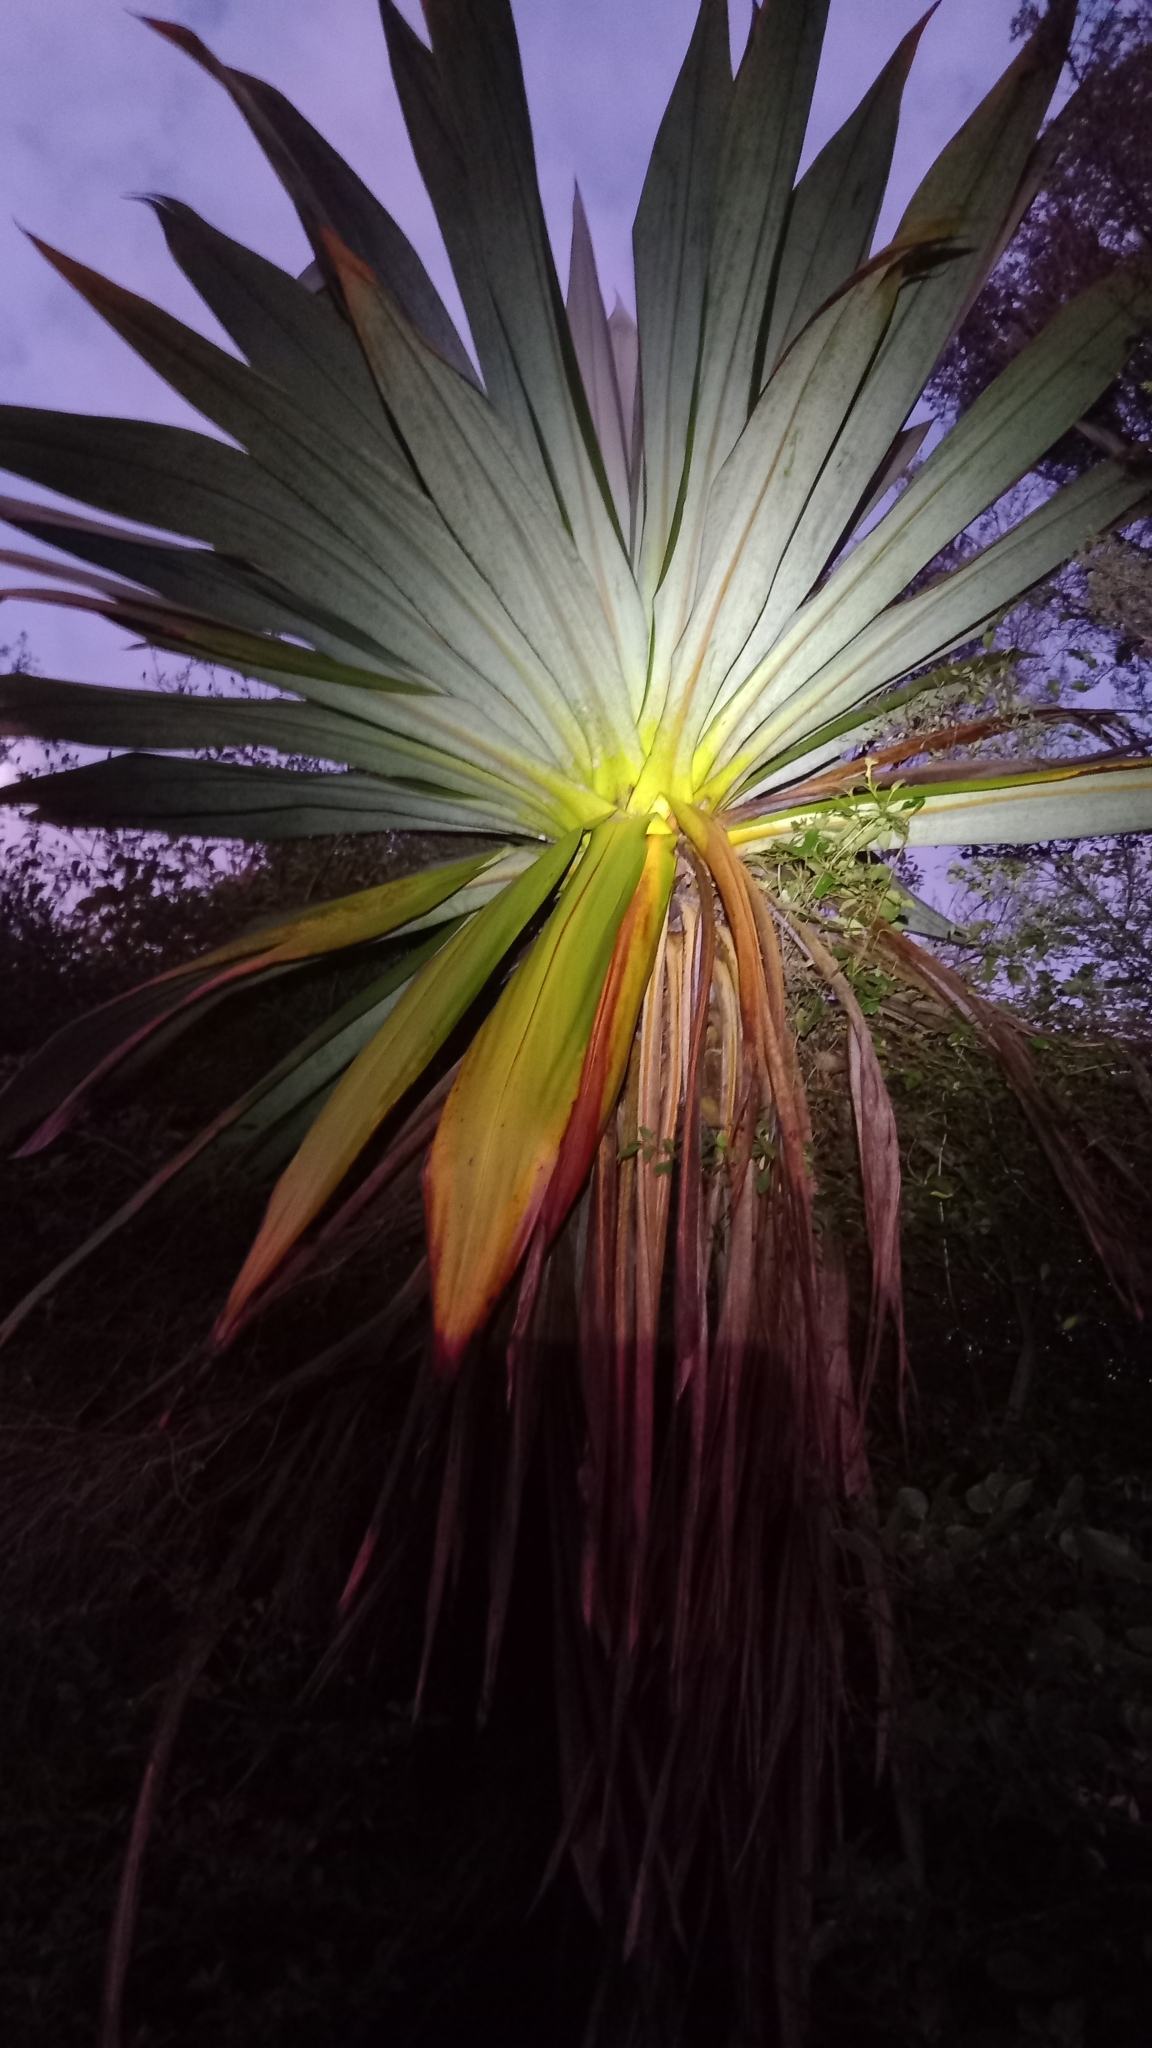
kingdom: Plantae
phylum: Tracheophyta
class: Liliopsida
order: Asparagales
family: Asparagaceae
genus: Cordyline
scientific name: Cordyline indivisa
